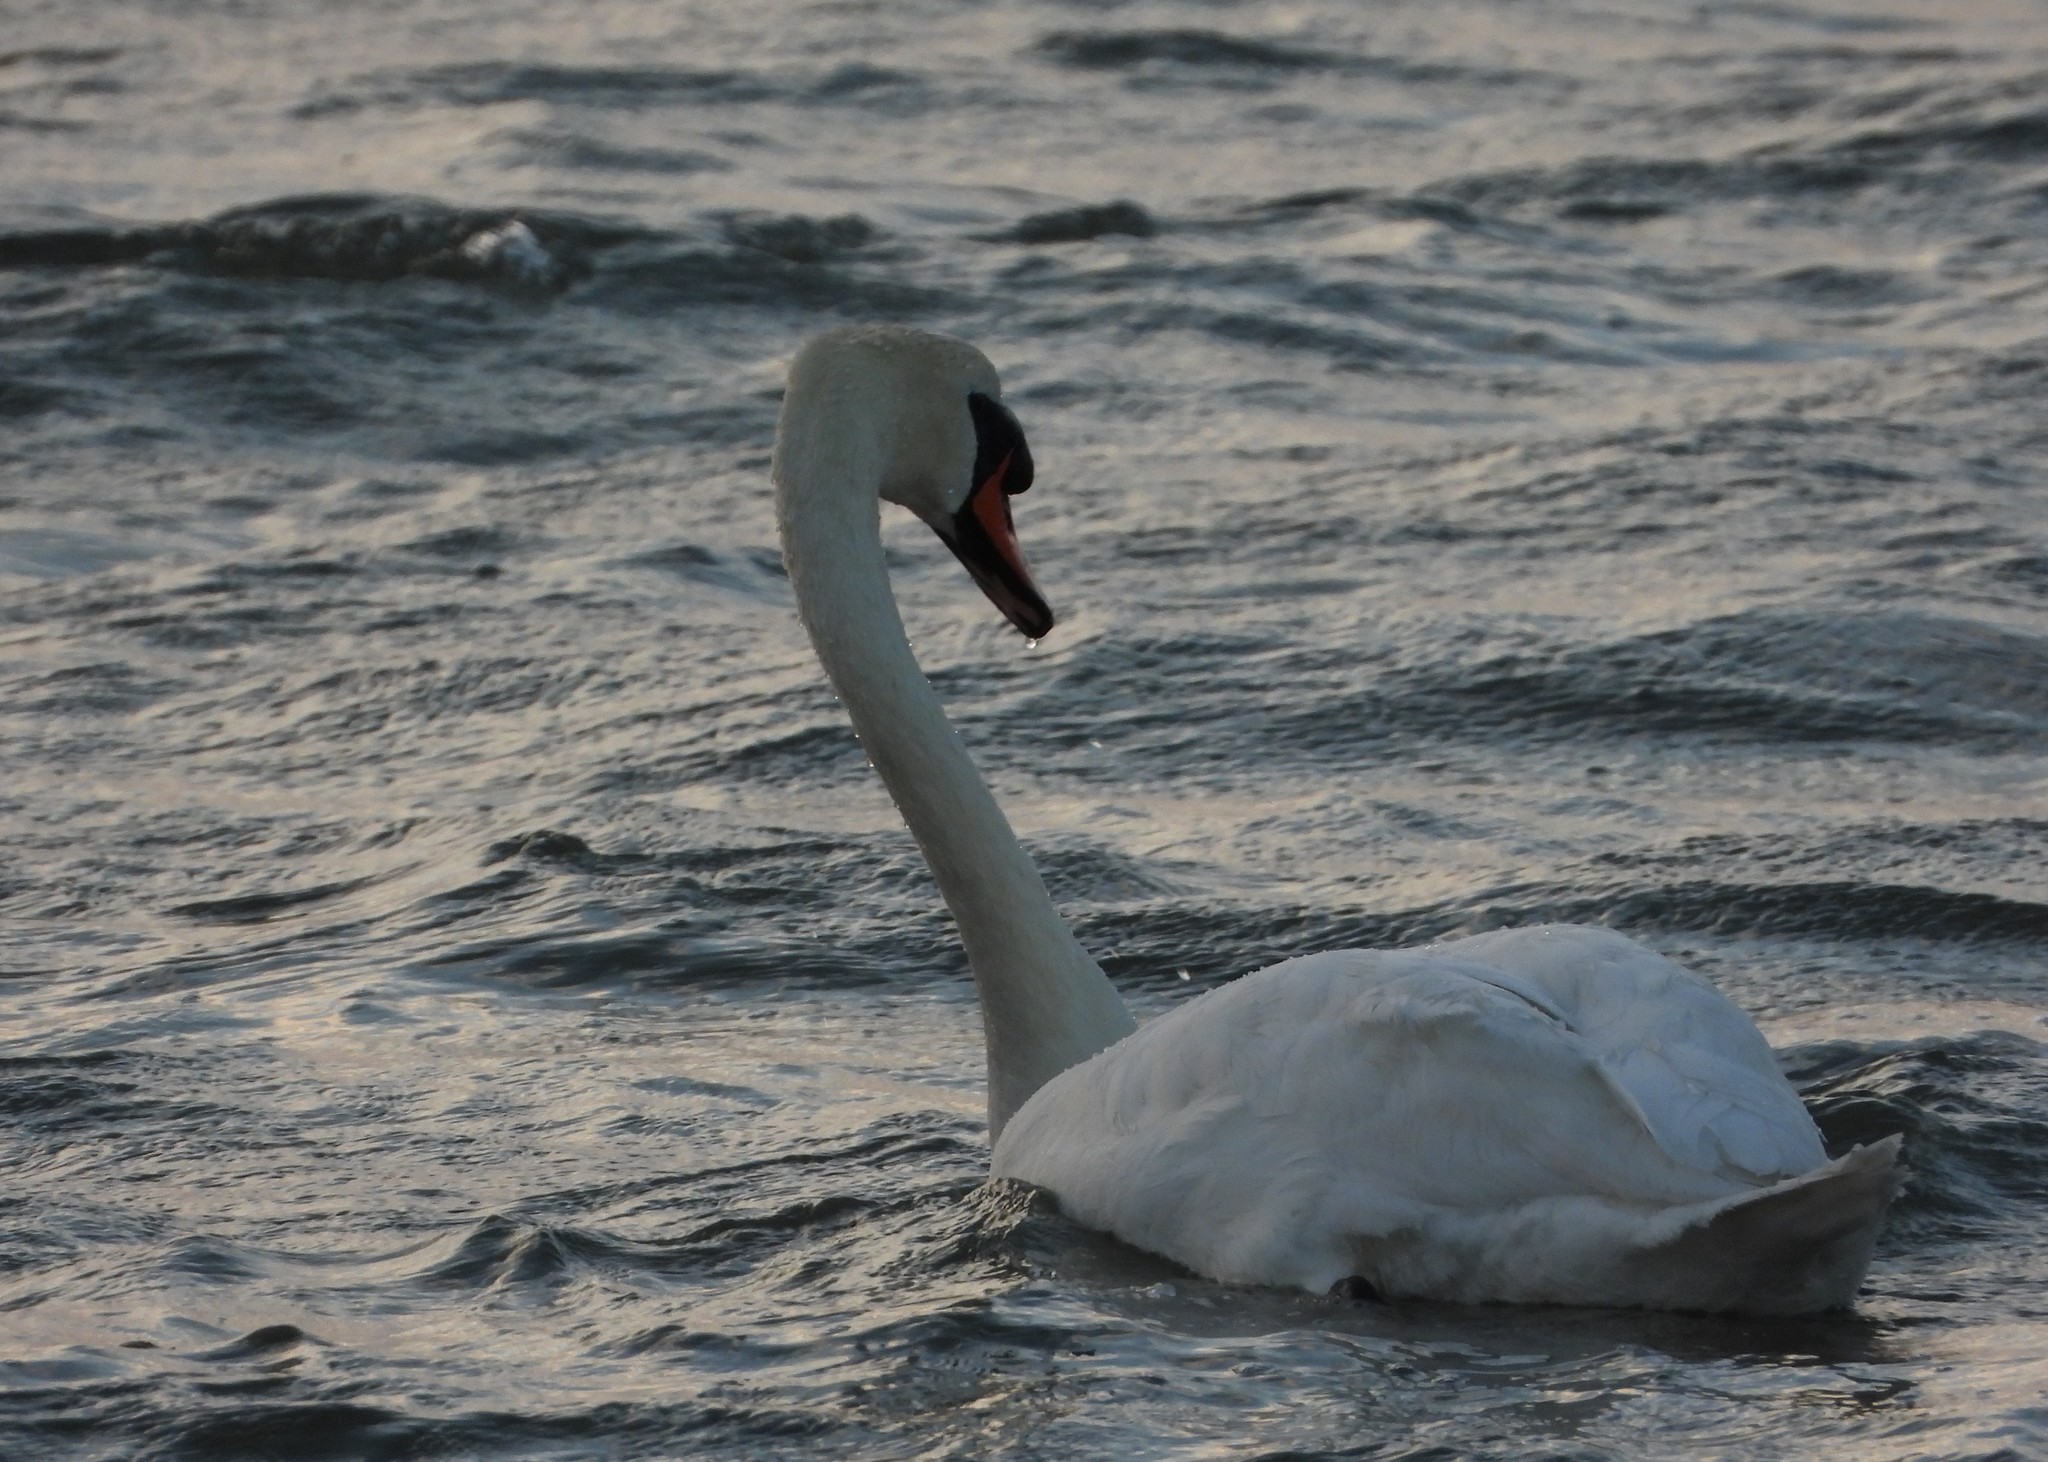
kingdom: Animalia
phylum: Chordata
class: Aves
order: Anseriformes
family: Anatidae
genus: Cygnus
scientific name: Cygnus olor
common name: Mute swan
